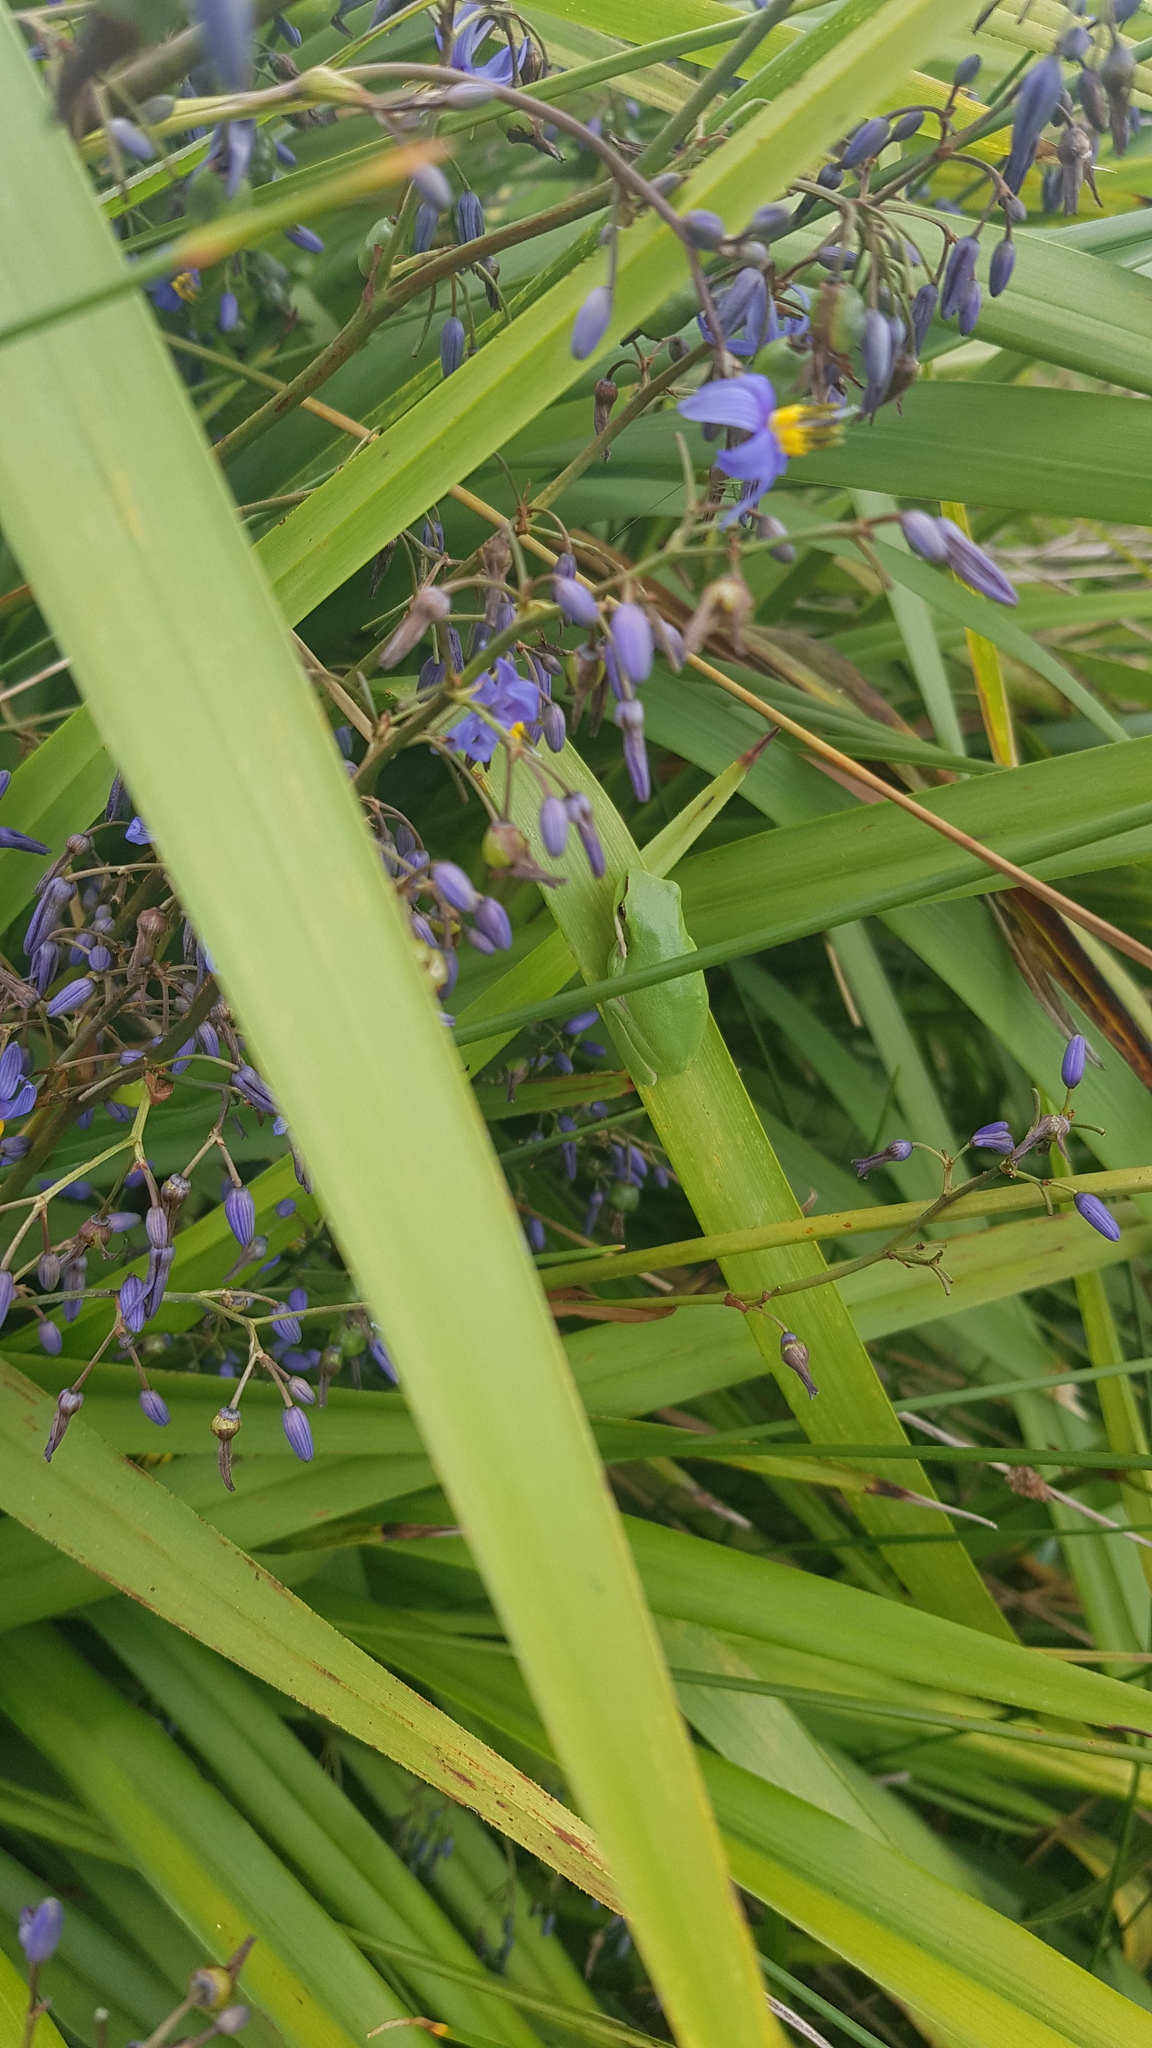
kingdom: Animalia
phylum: Chordata
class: Amphibia
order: Anura
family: Pelodryadidae
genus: Litoria
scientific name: Litoria fallax
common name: Eastern dwarf treefrog
